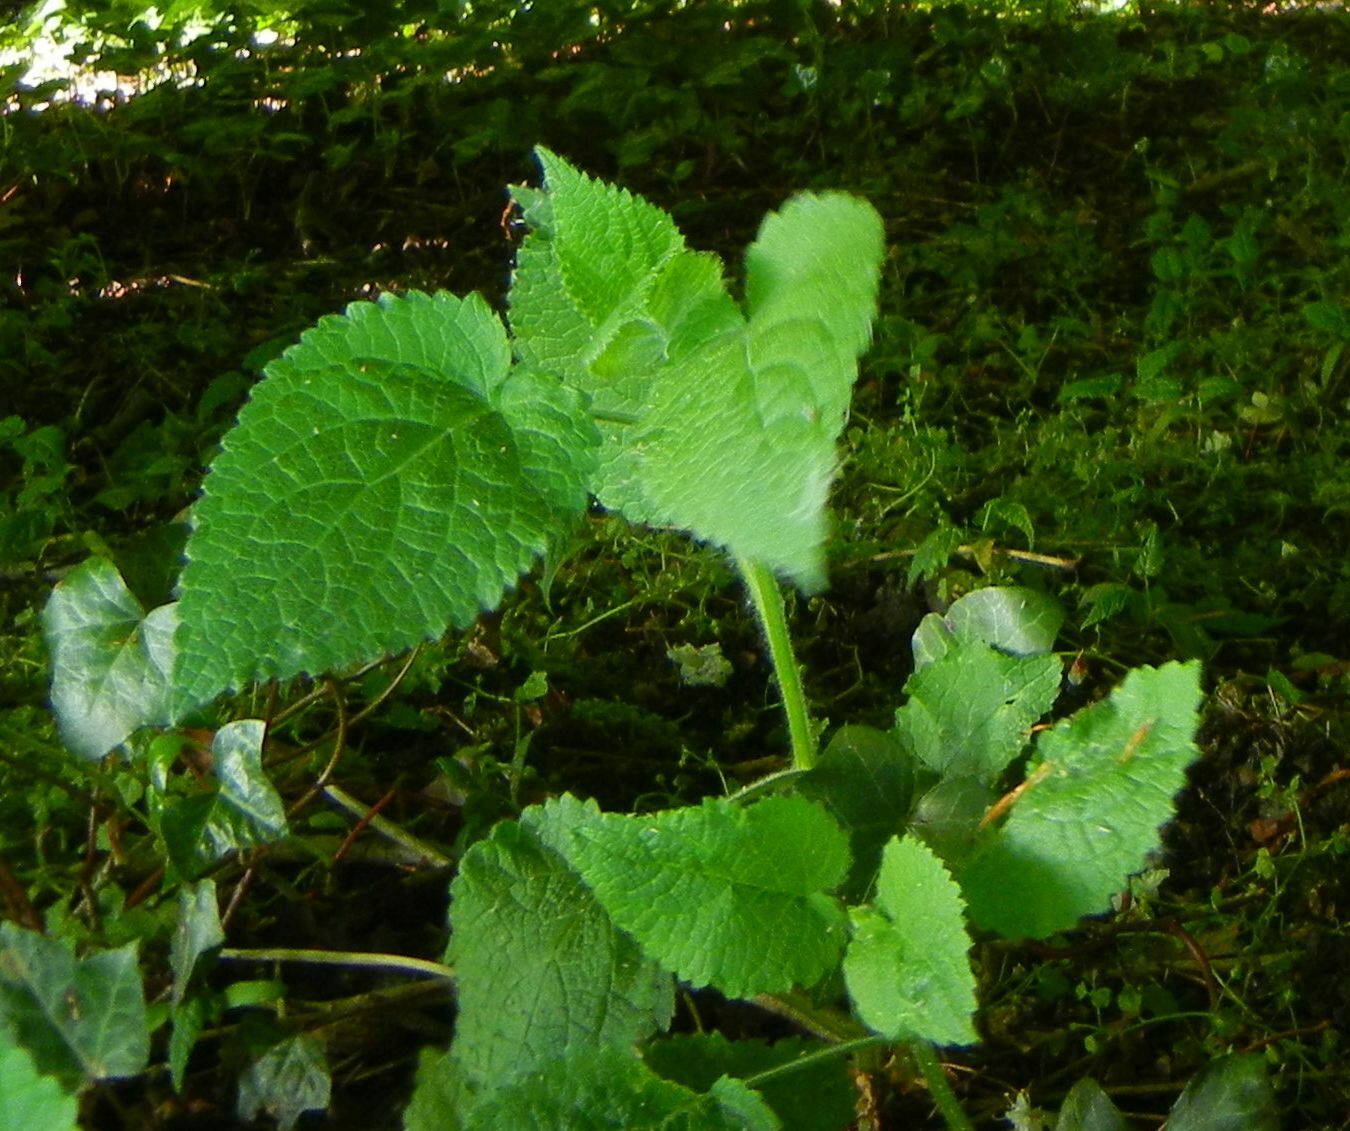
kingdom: Plantae
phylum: Tracheophyta
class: Magnoliopsida
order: Lamiales
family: Lamiaceae
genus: Stachys
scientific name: Stachys sylvatica
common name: Hedge woundwort
